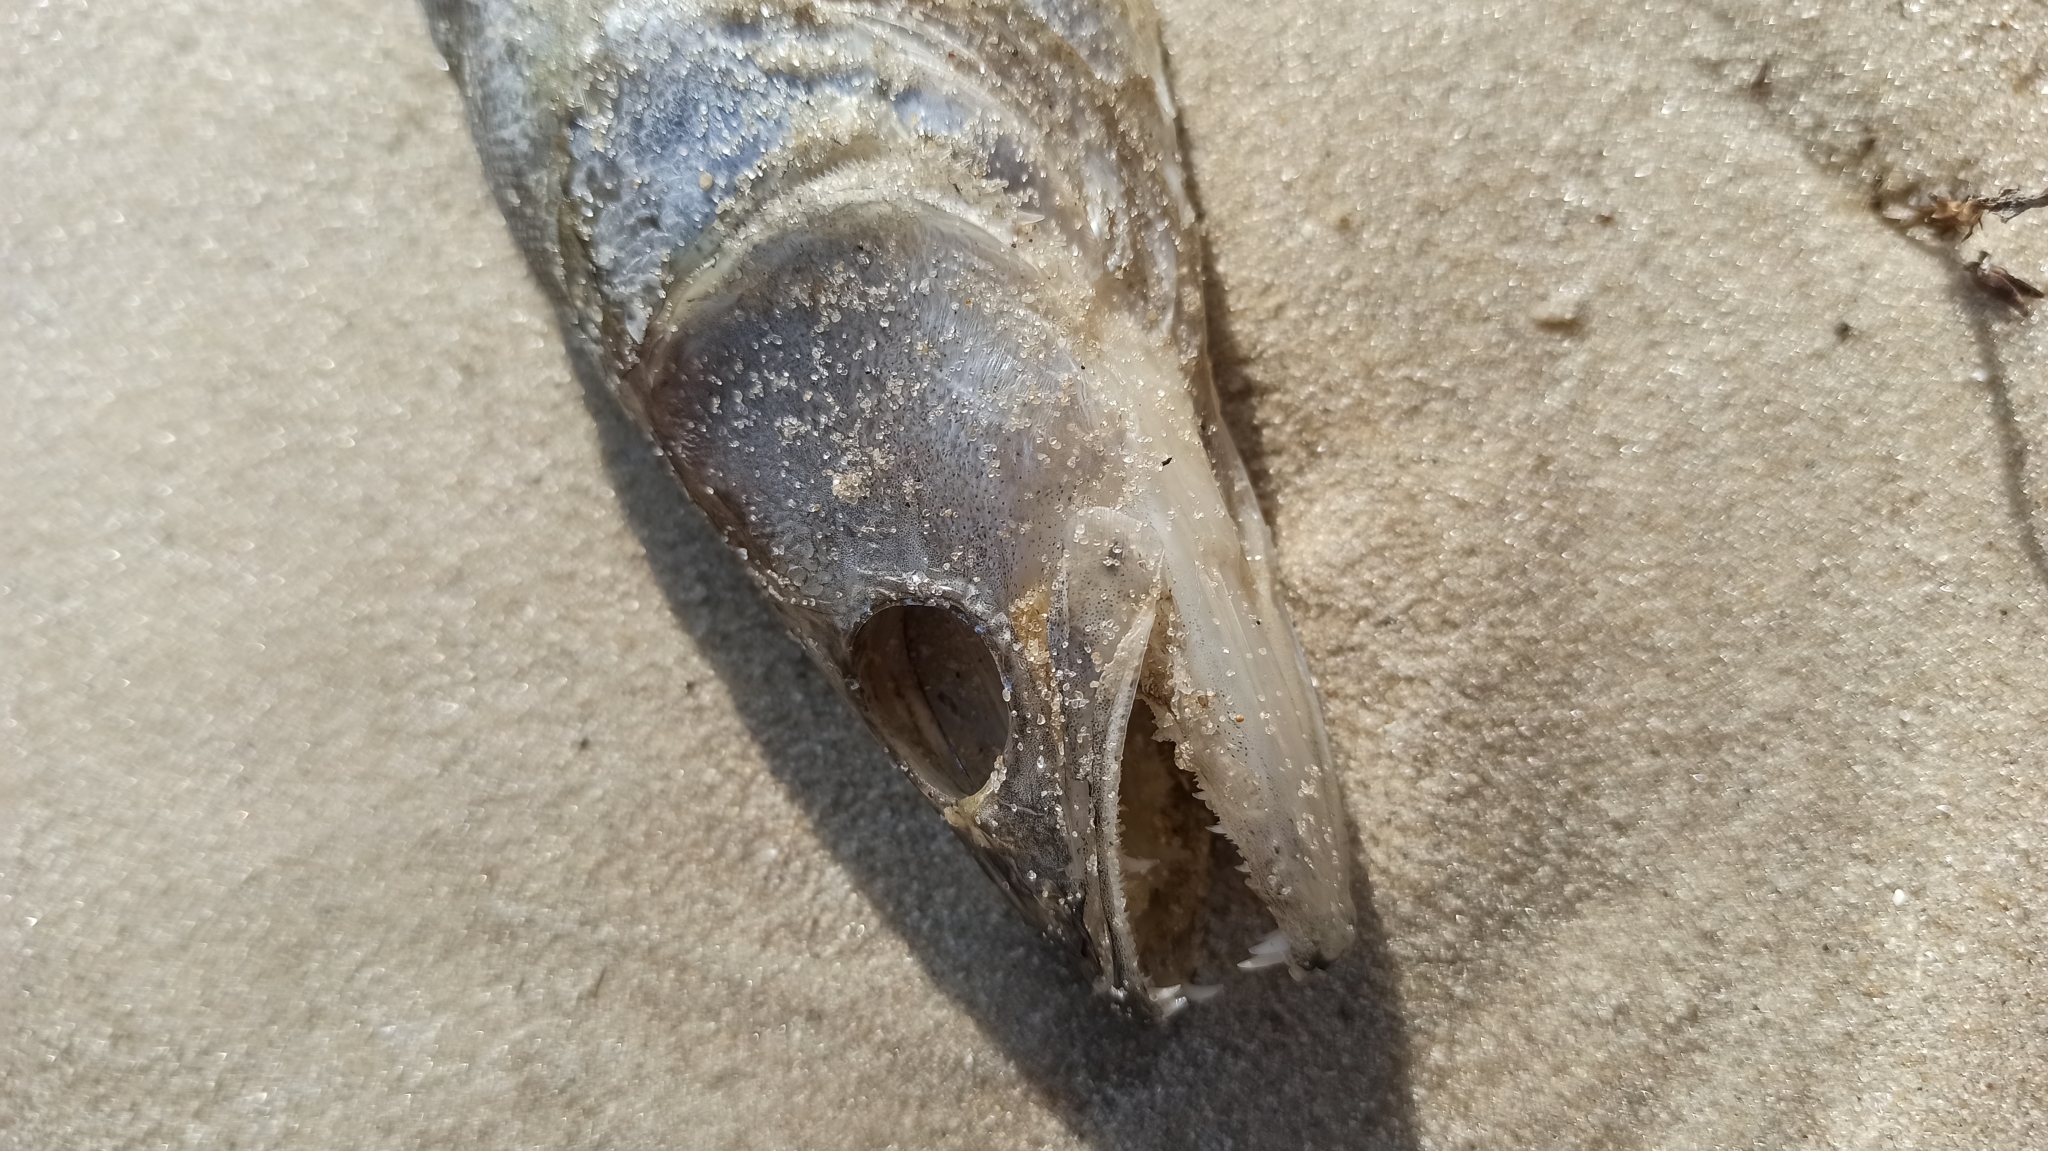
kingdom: Animalia
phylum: Chordata
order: Perciformes
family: Percidae
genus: Sander
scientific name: Sander lucioperca
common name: Pikeperch
